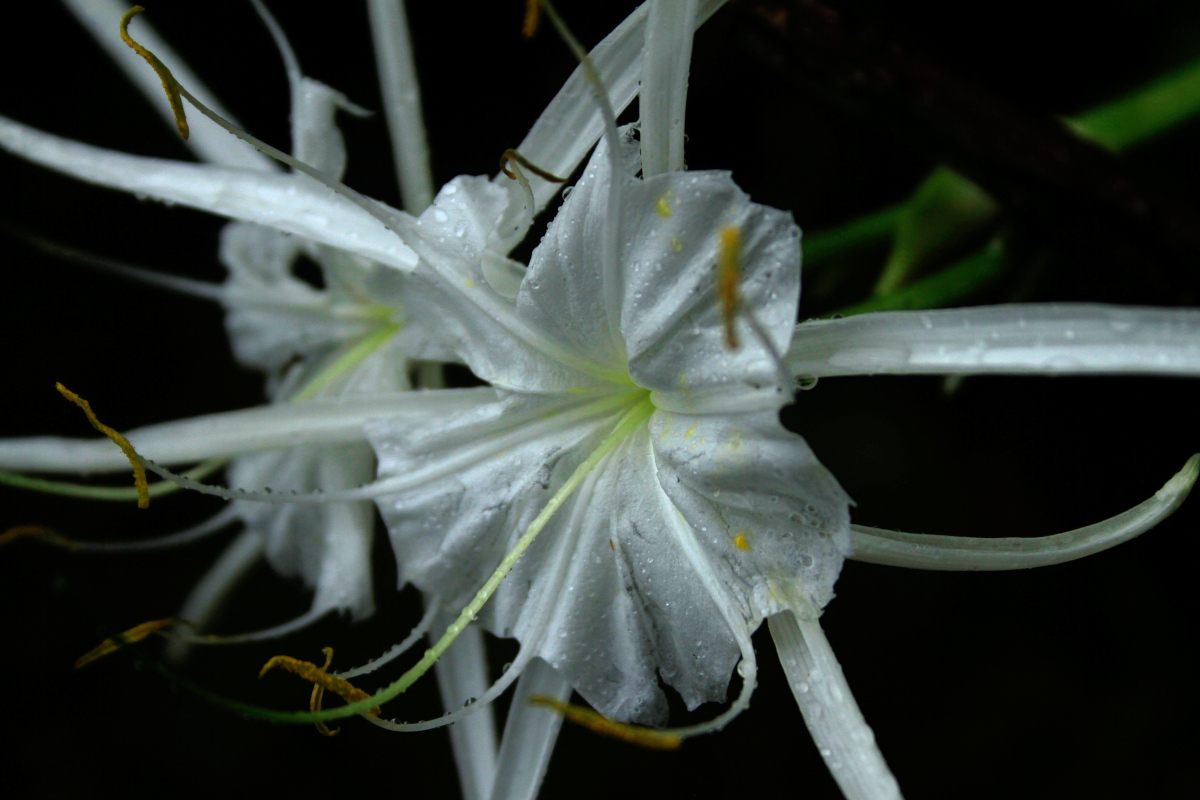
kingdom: Plantae
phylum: Tracheophyta
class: Liliopsida
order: Asparagales
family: Amaryllidaceae
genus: Hymenocallis
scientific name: Hymenocallis crassifolia
